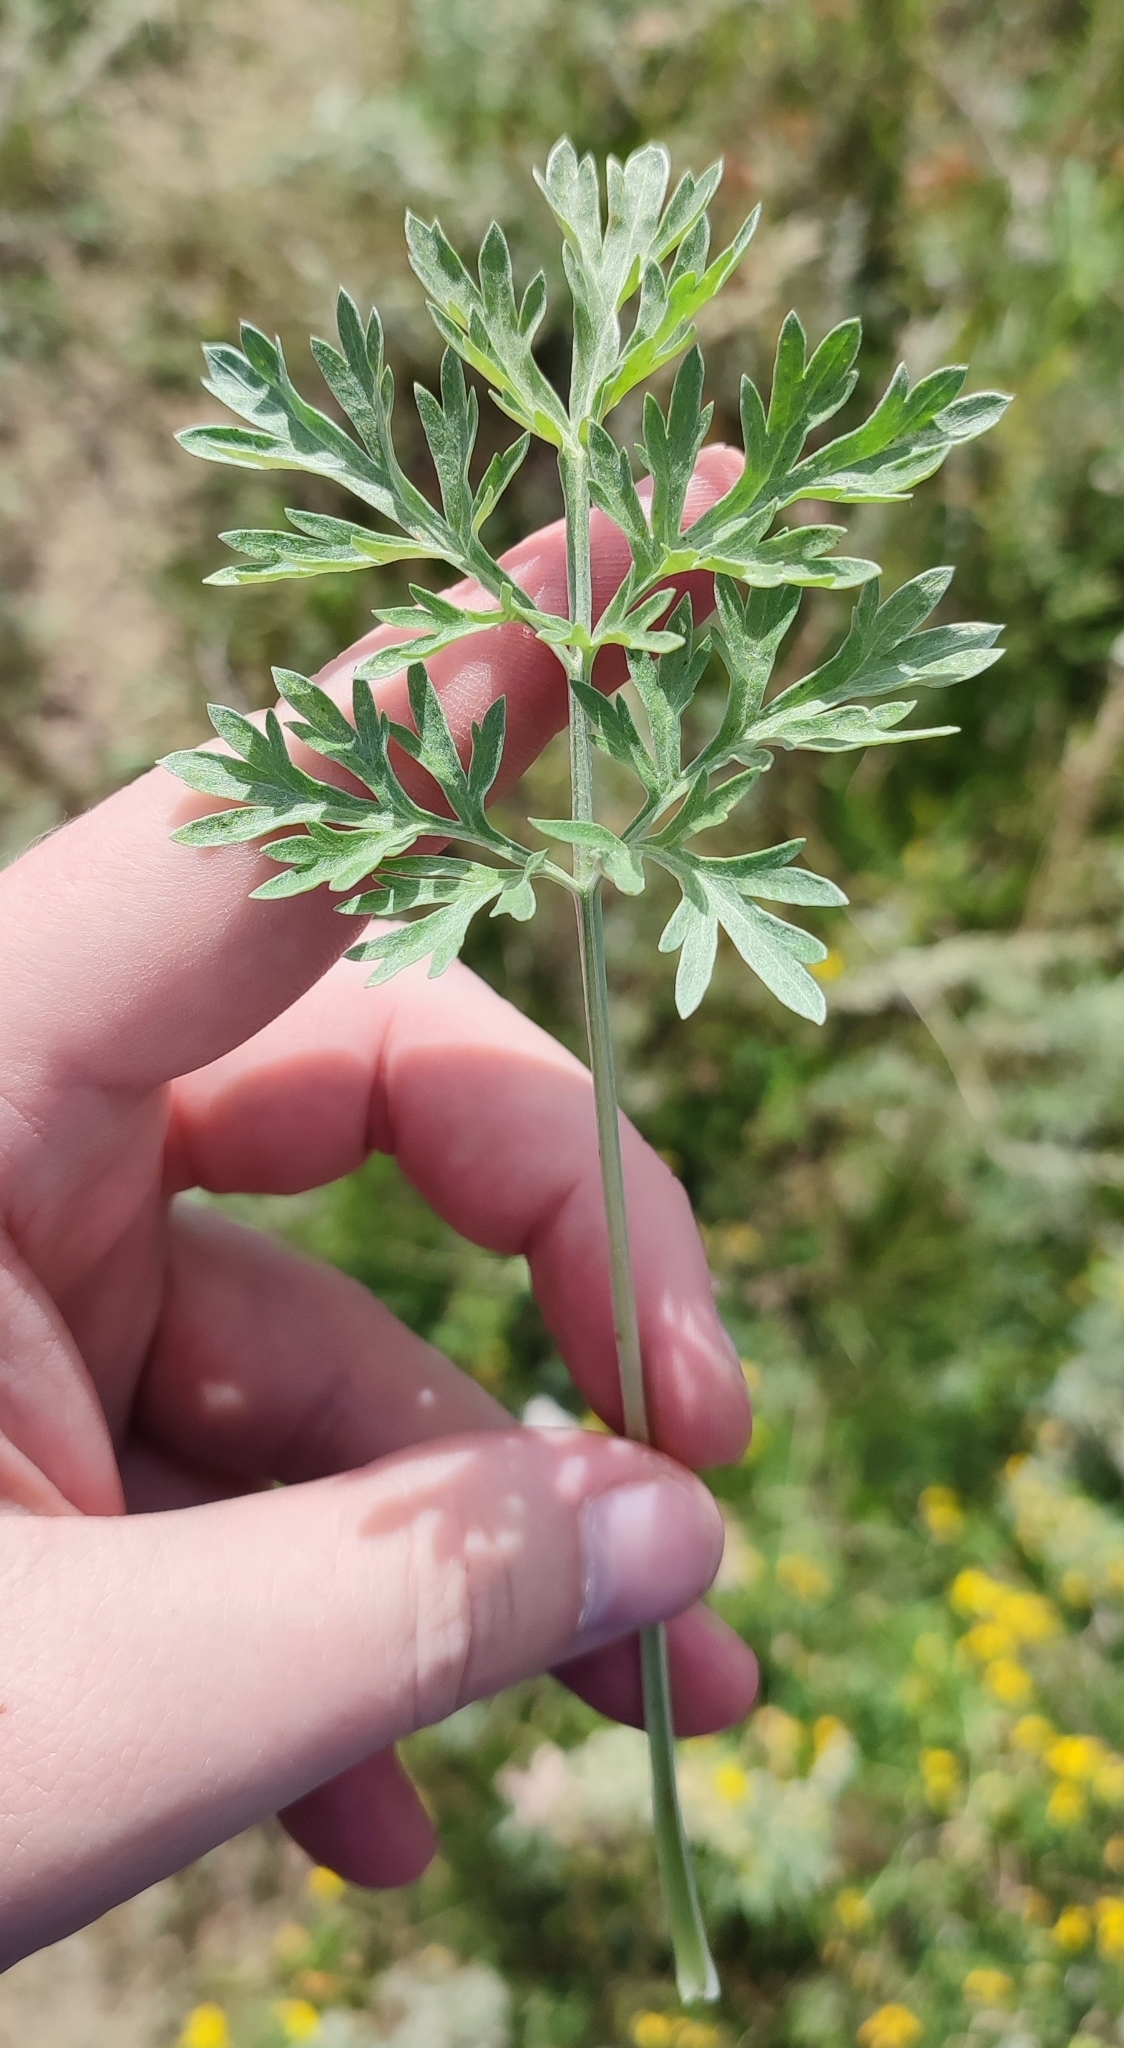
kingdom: Plantae
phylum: Tracheophyta
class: Magnoliopsida
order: Asterales
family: Asteraceae
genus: Artemisia
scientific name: Artemisia absinthium
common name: Wormwood
